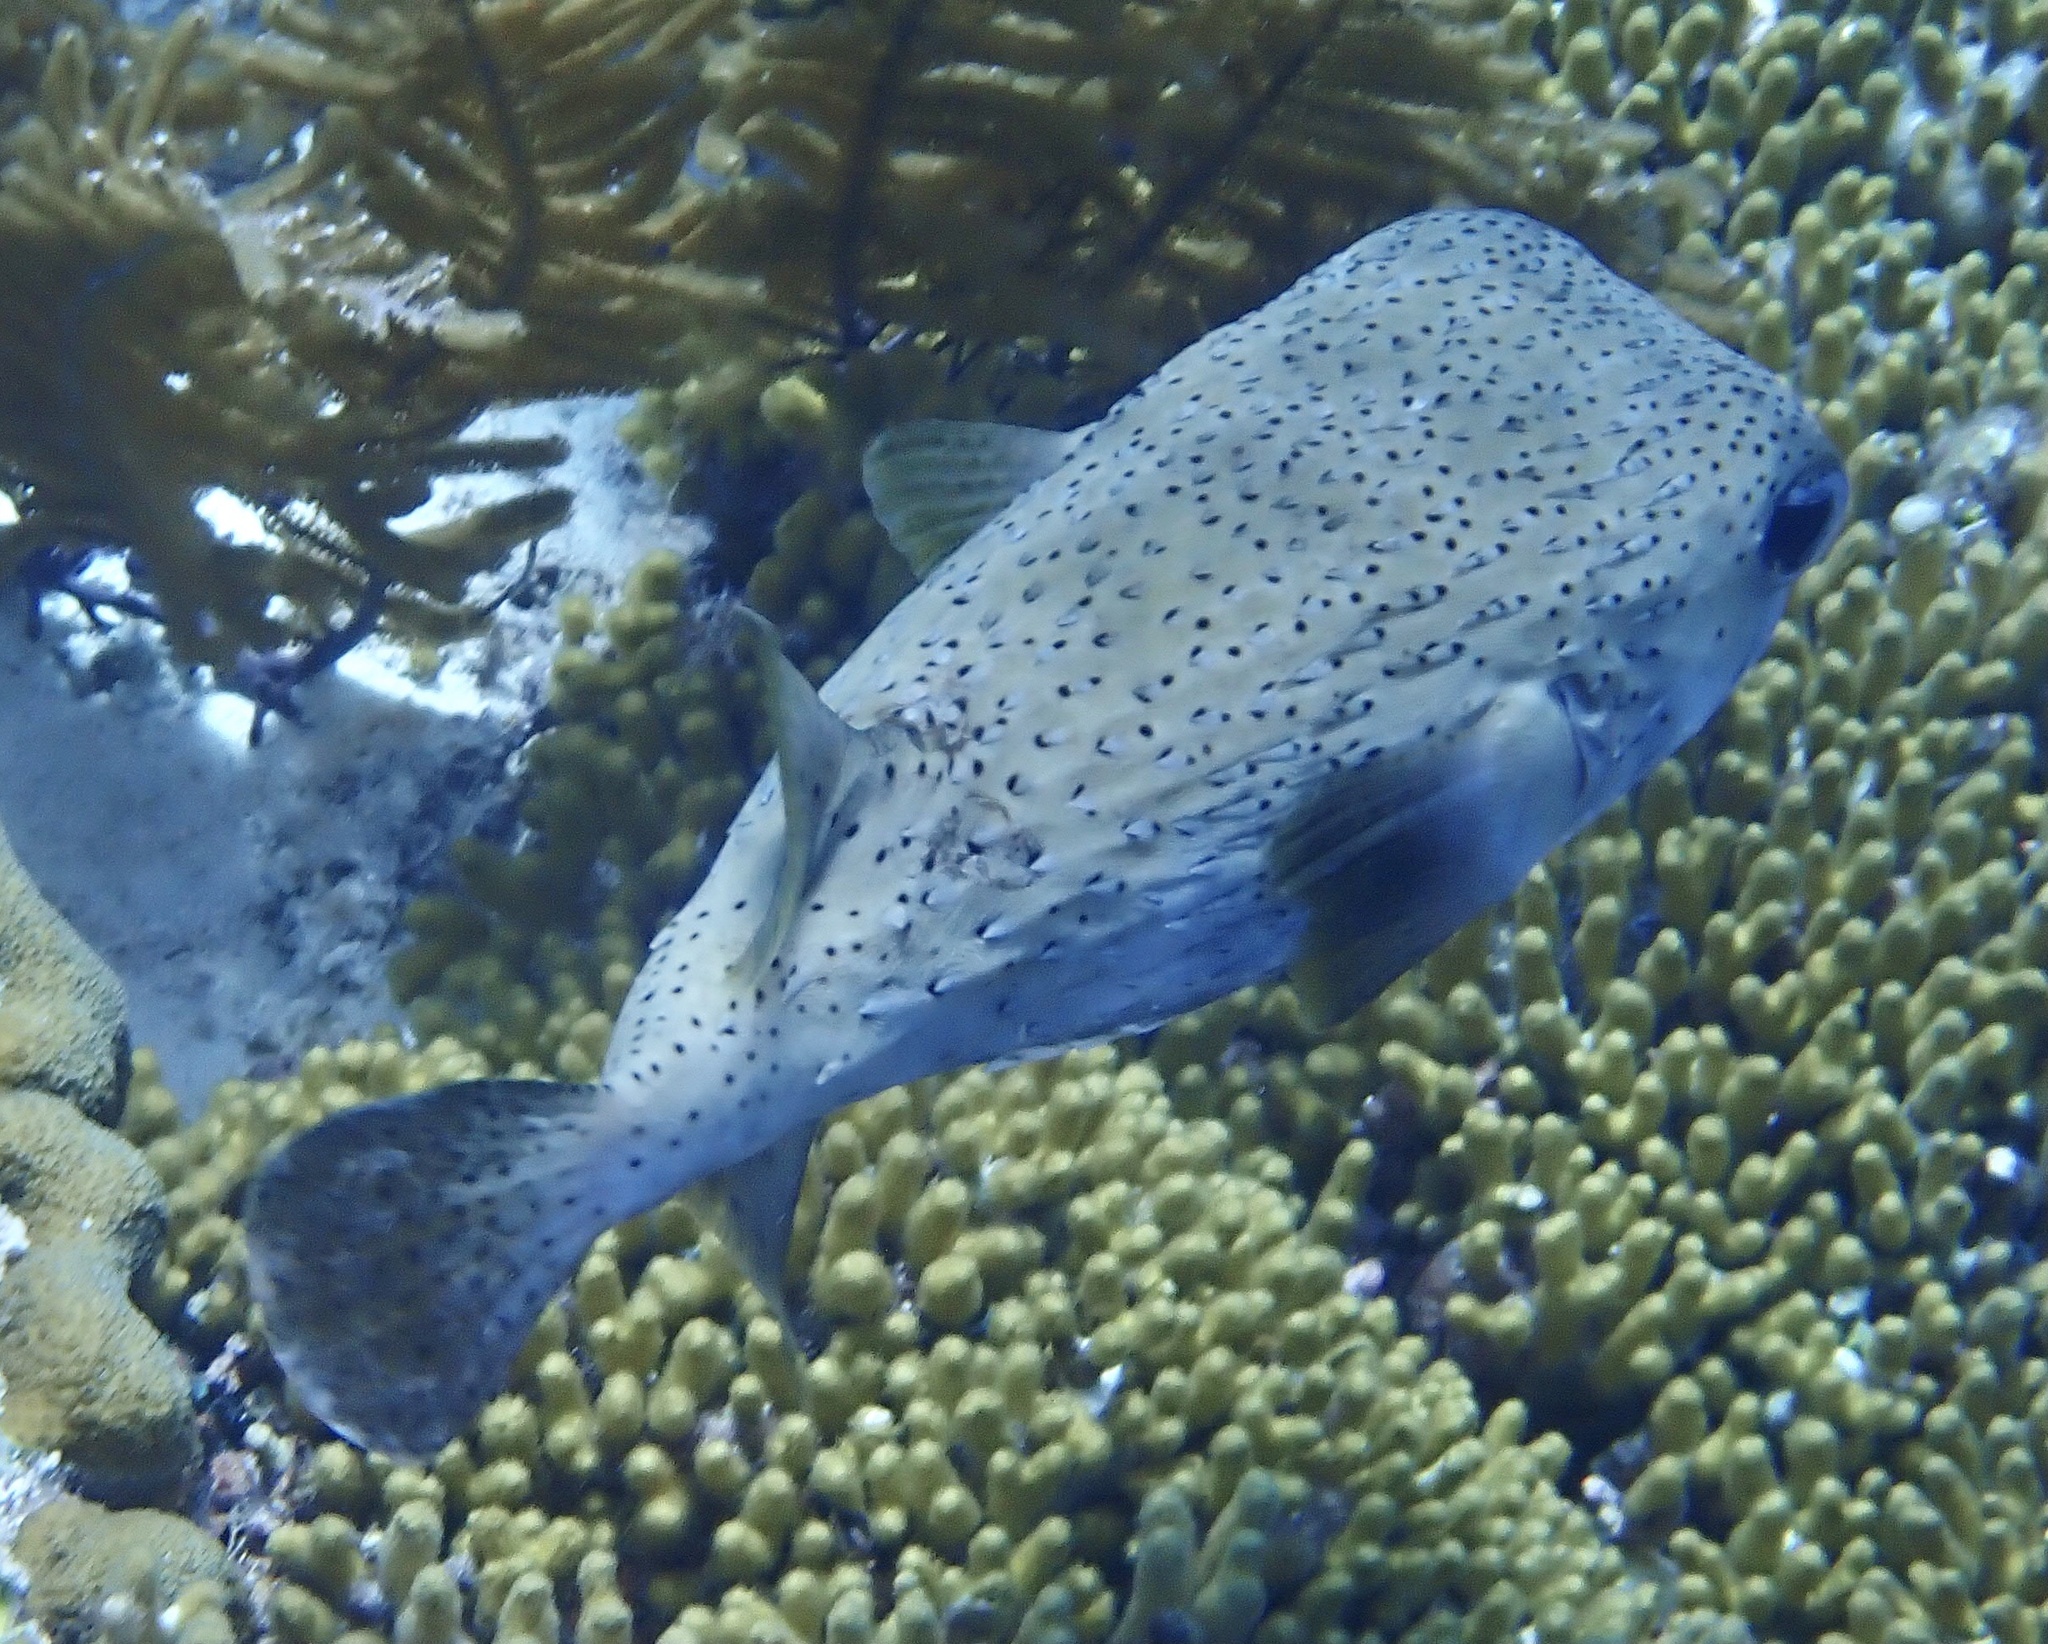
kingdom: Animalia
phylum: Chordata
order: Tetraodontiformes
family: Diodontidae
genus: Diodon
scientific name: Diodon hystrix
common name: Giant porcupinefish
